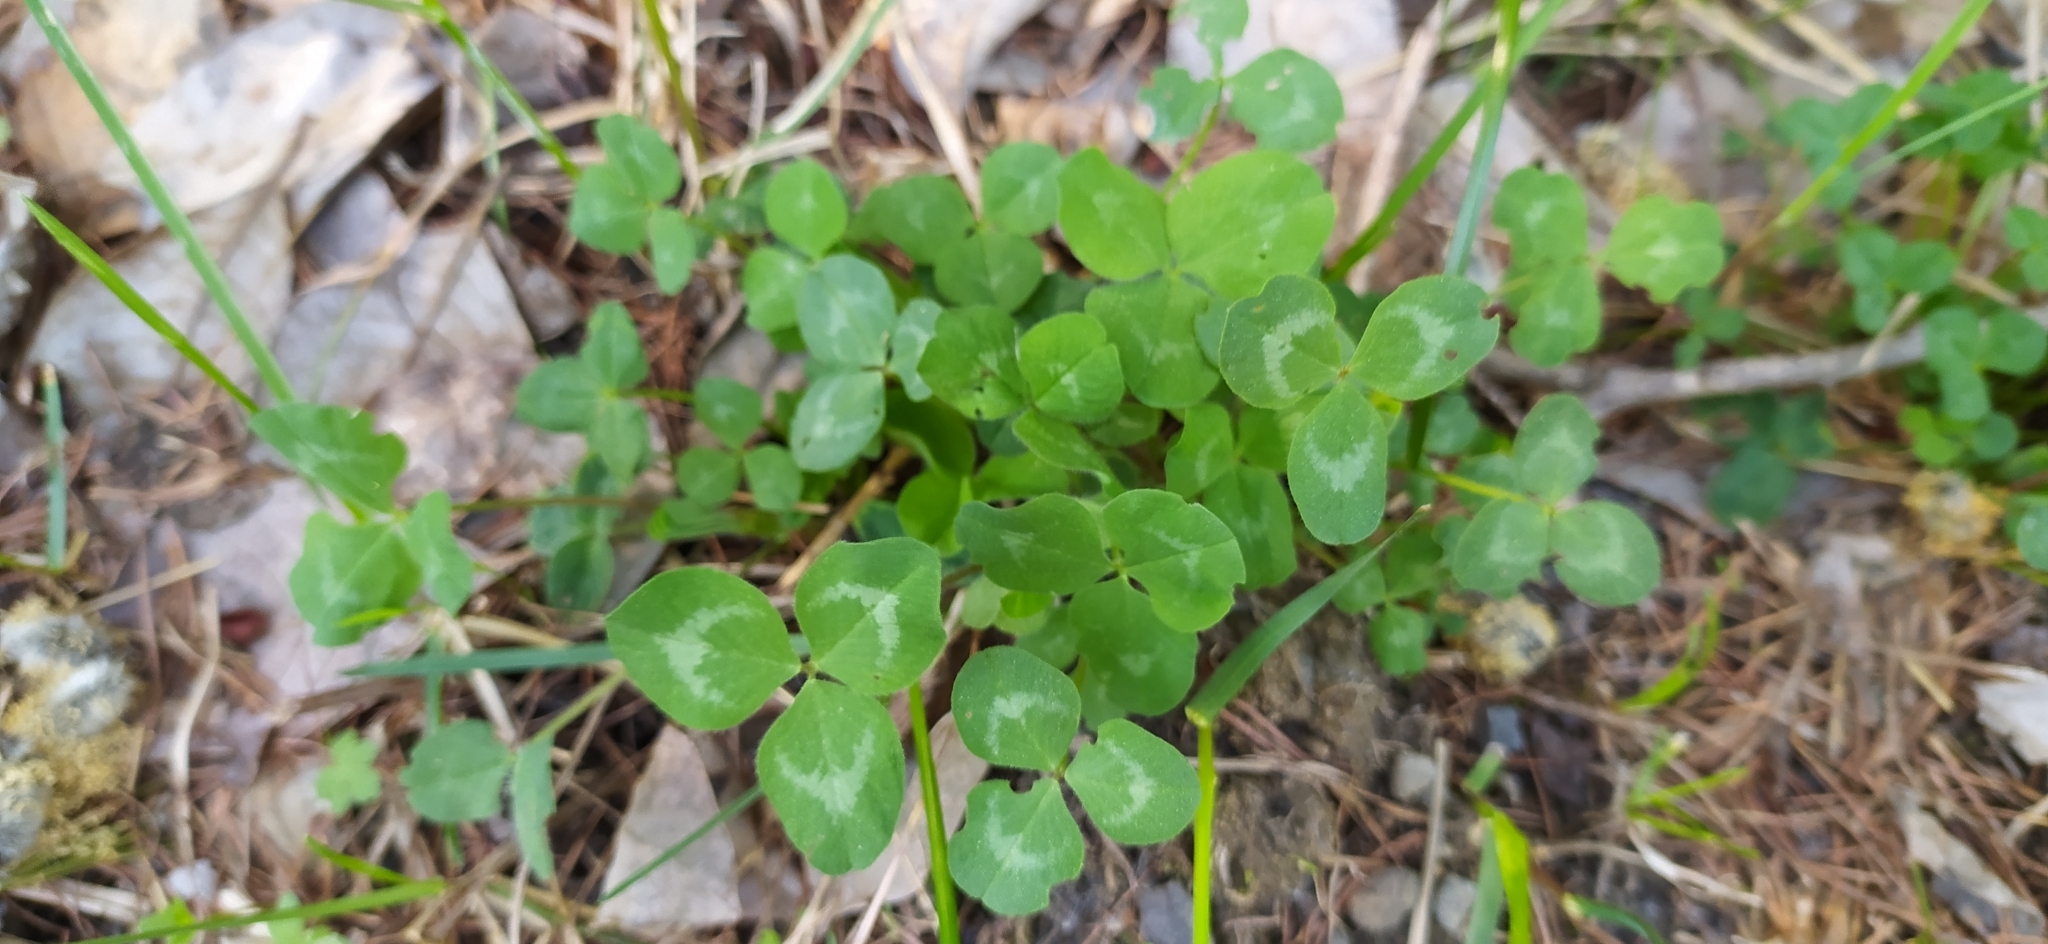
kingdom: Plantae
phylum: Tracheophyta
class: Magnoliopsida
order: Fabales
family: Fabaceae
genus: Trifolium
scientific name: Trifolium repens
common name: White clover
